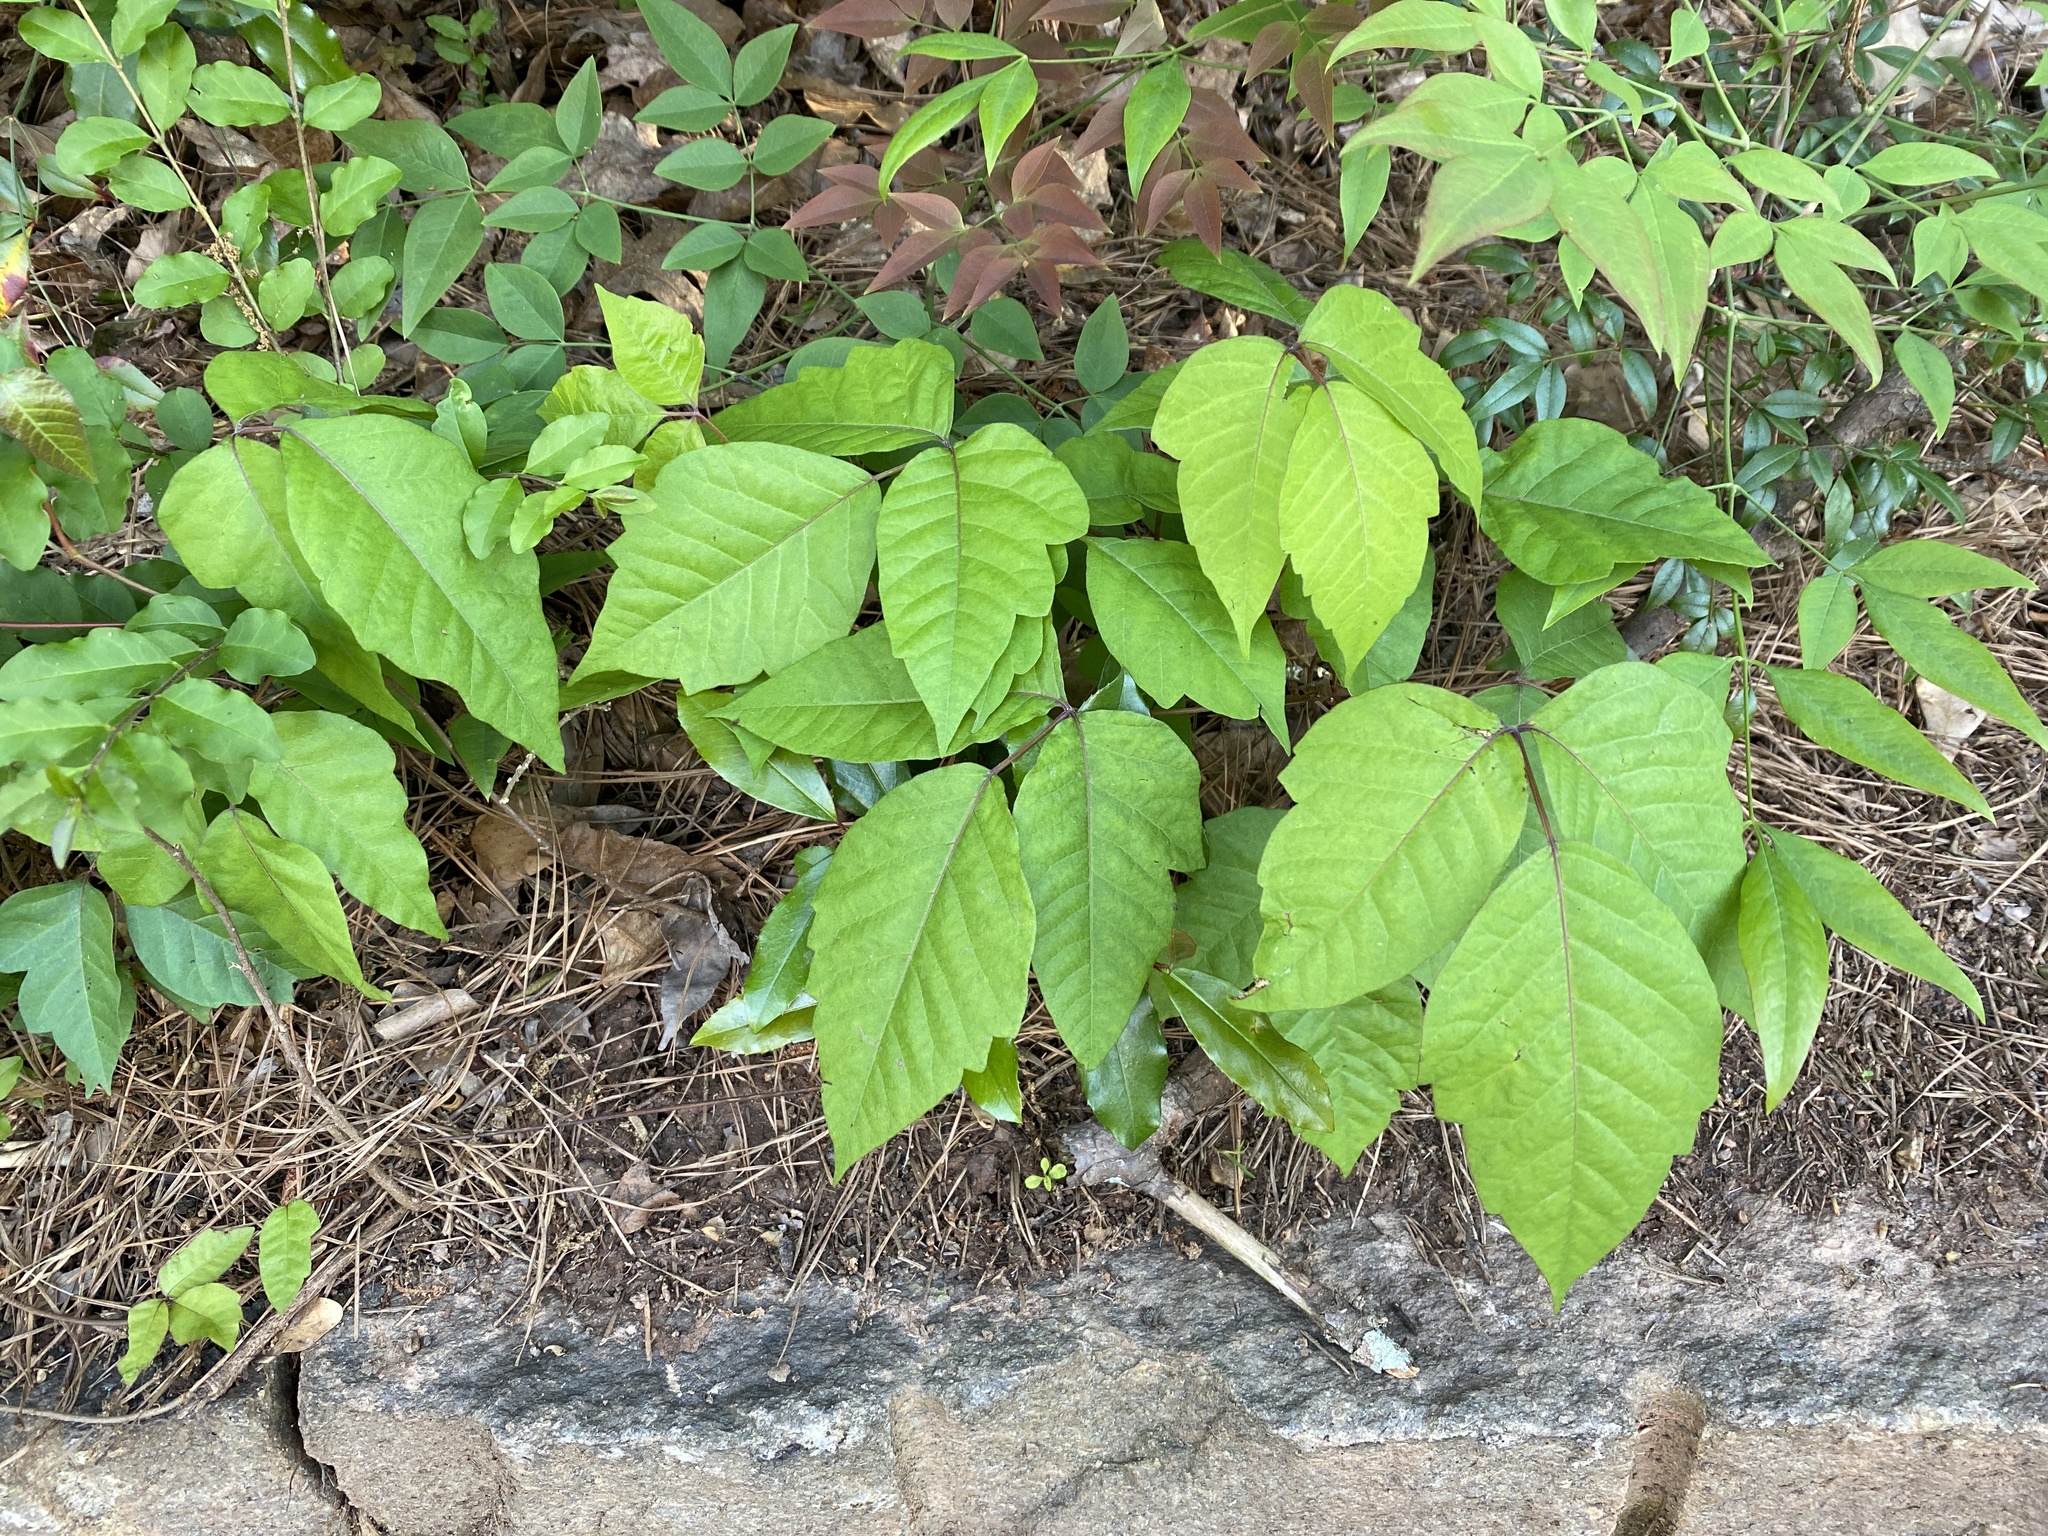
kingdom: Plantae
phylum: Tracheophyta
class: Magnoliopsida
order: Sapindales
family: Anacardiaceae
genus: Toxicodendron
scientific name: Toxicodendron radicans
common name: Poison ivy
